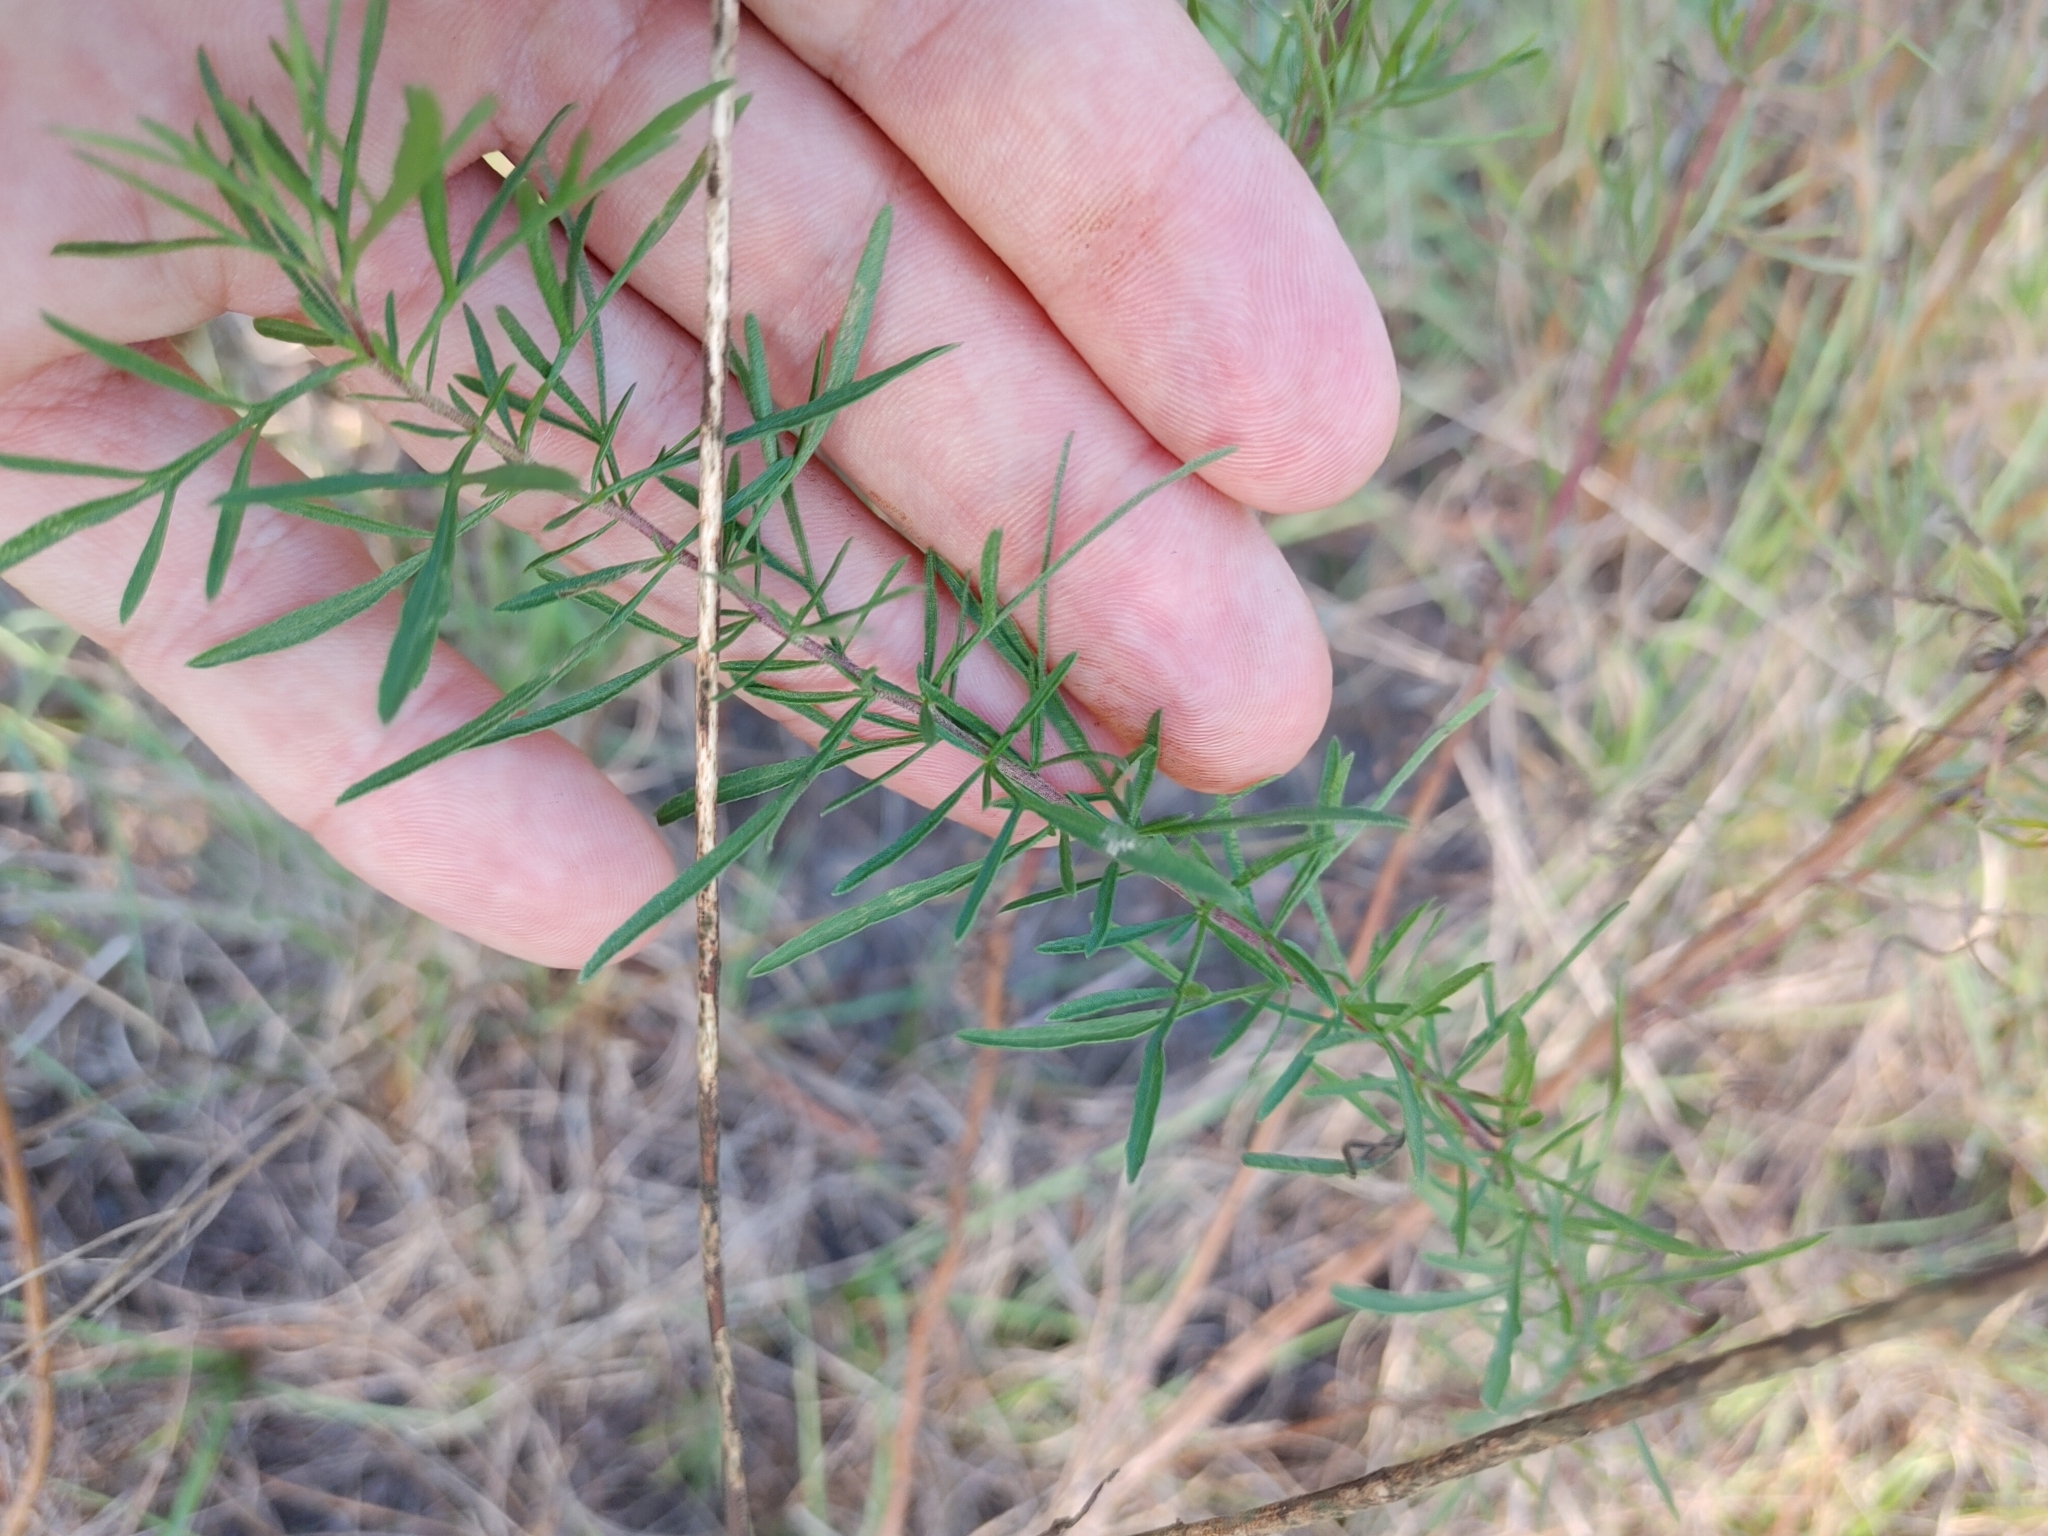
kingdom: Plantae
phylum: Tracheophyta
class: Magnoliopsida
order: Asterales
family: Asteraceae
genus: Eupatorium
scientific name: Eupatorium compositifolium
